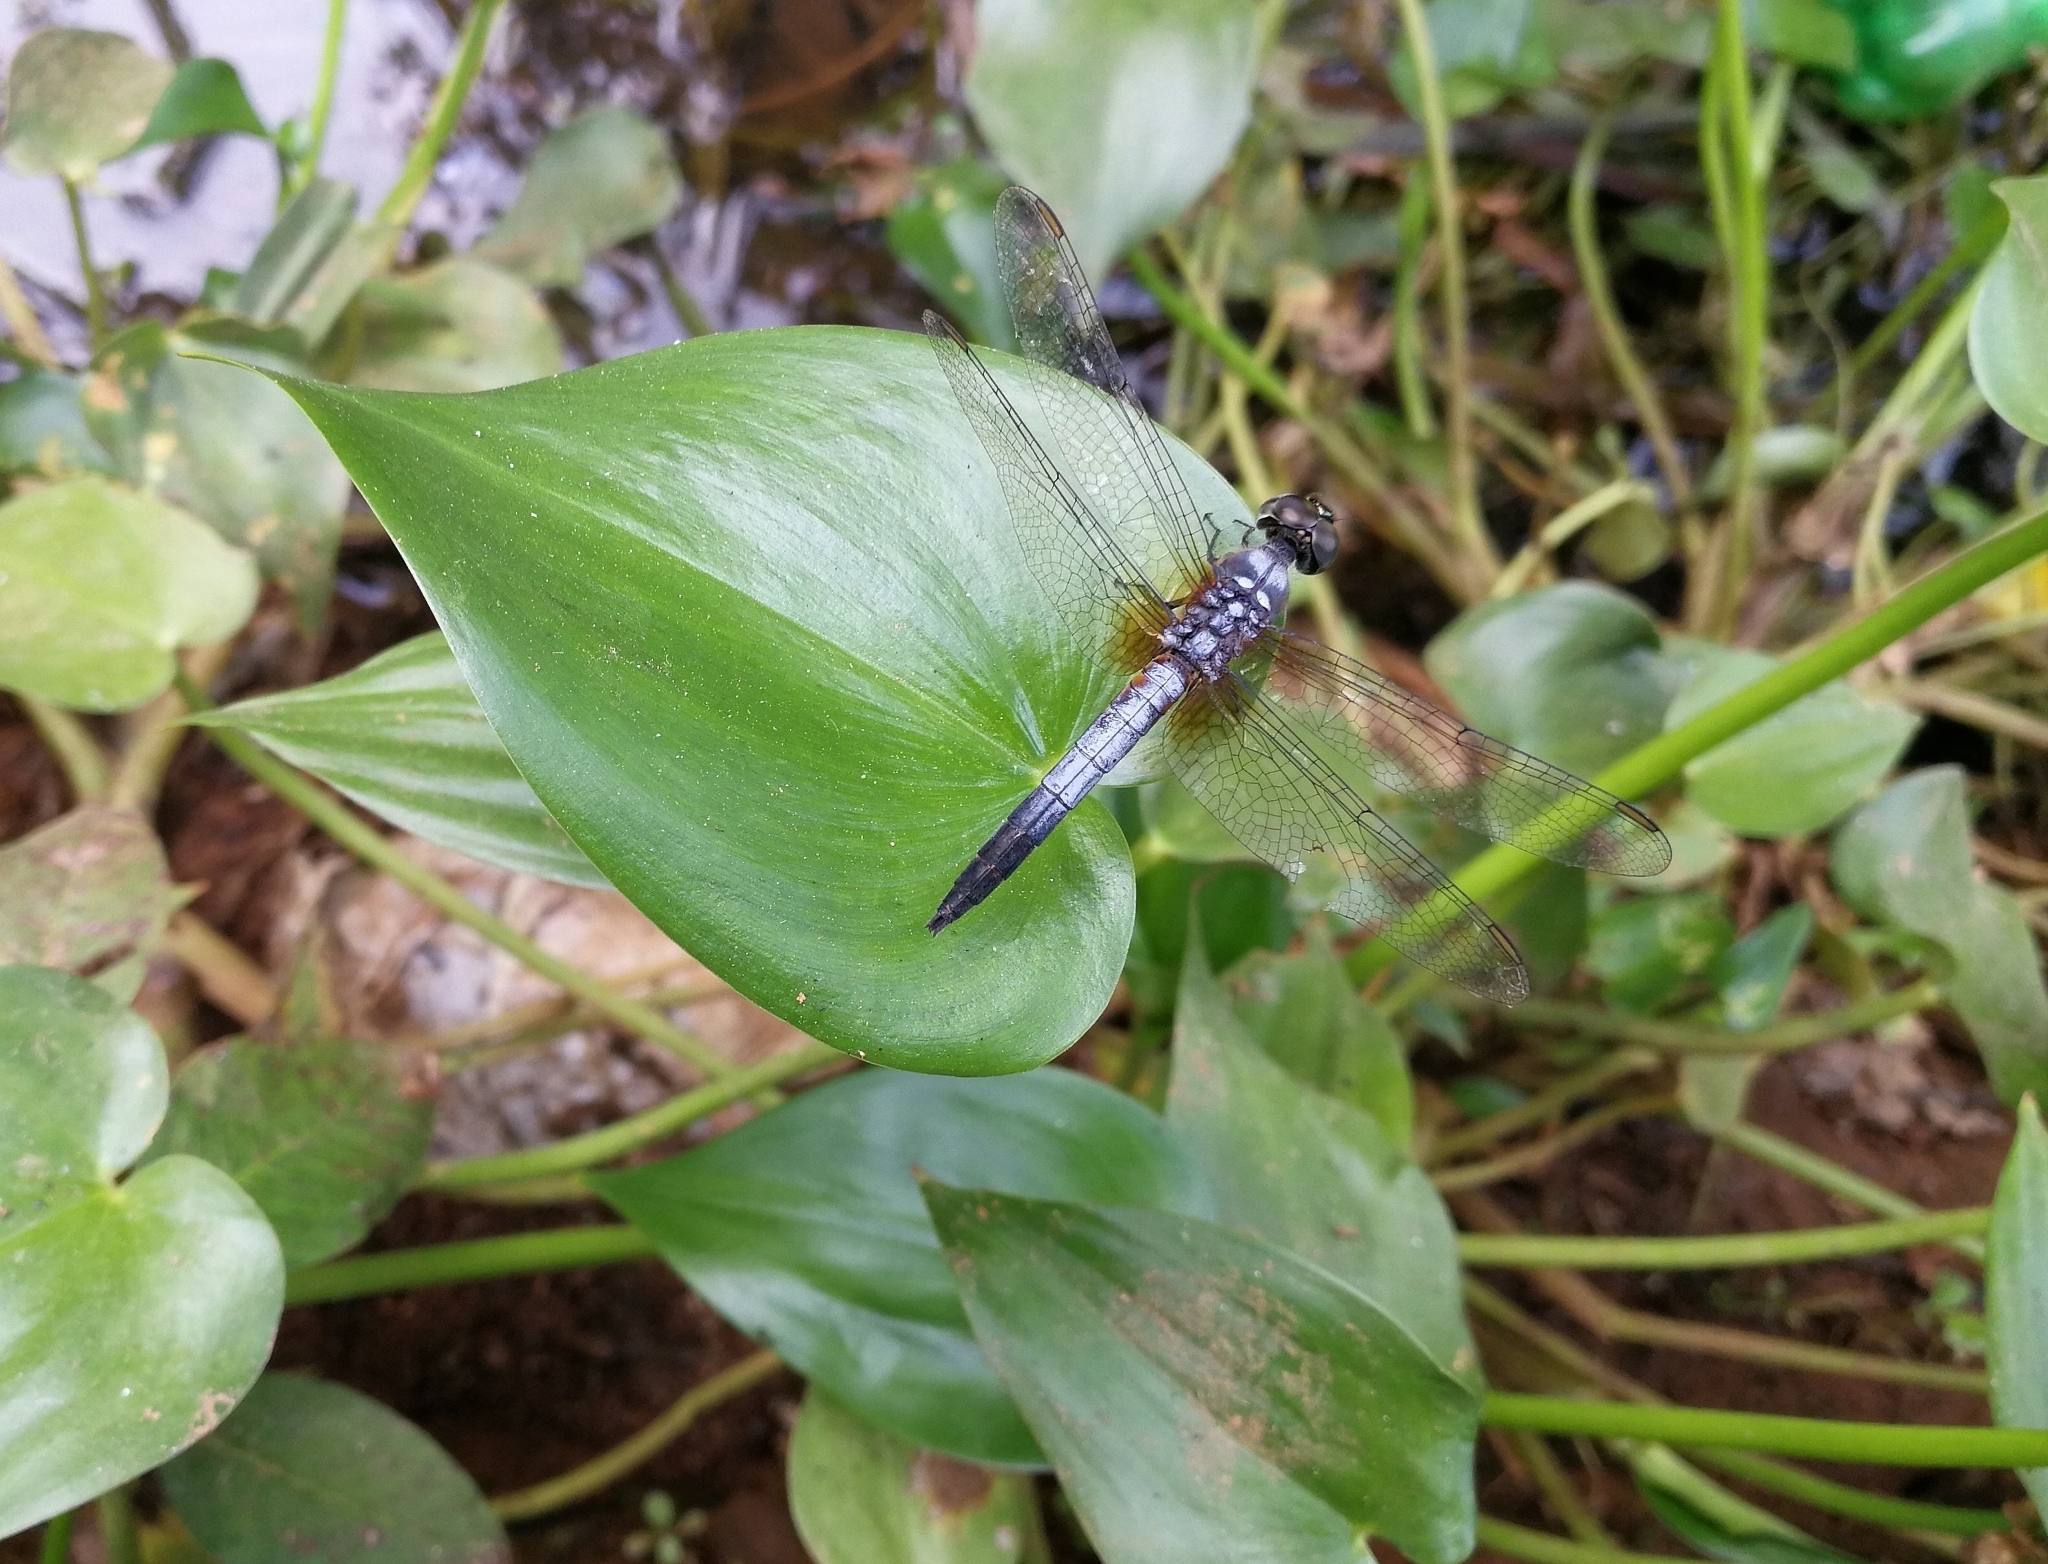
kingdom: Animalia
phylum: Arthropoda
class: Insecta
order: Odonata
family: Libellulidae
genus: Brachydiplax
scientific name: Brachydiplax chalybea
